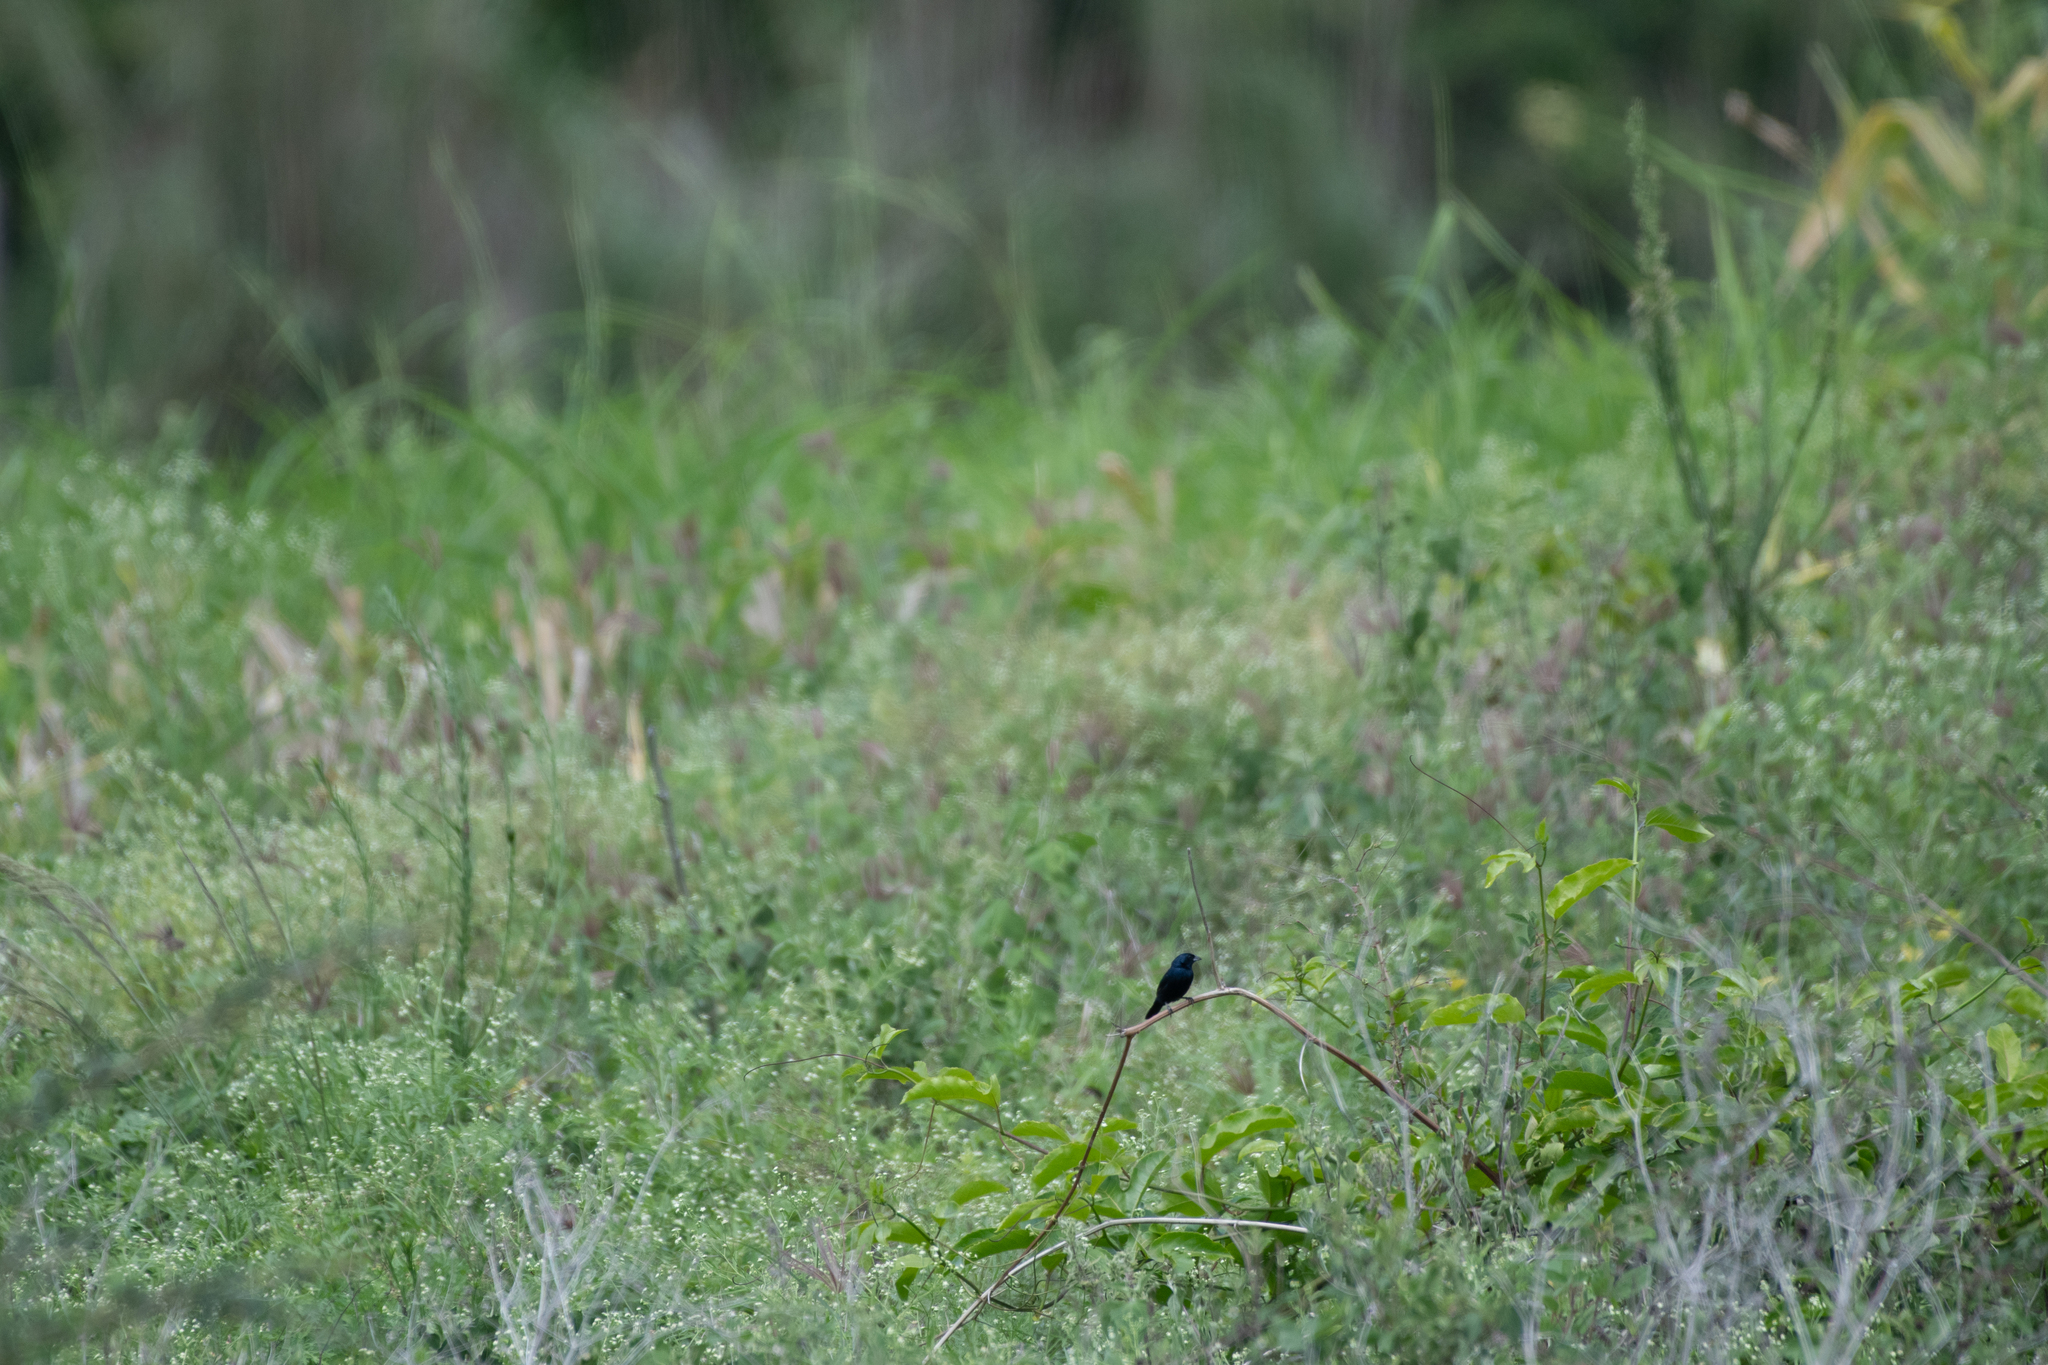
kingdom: Animalia
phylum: Chordata
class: Aves
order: Passeriformes
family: Thraupidae
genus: Volatinia
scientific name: Volatinia jacarina
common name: Blue-black grassquit
